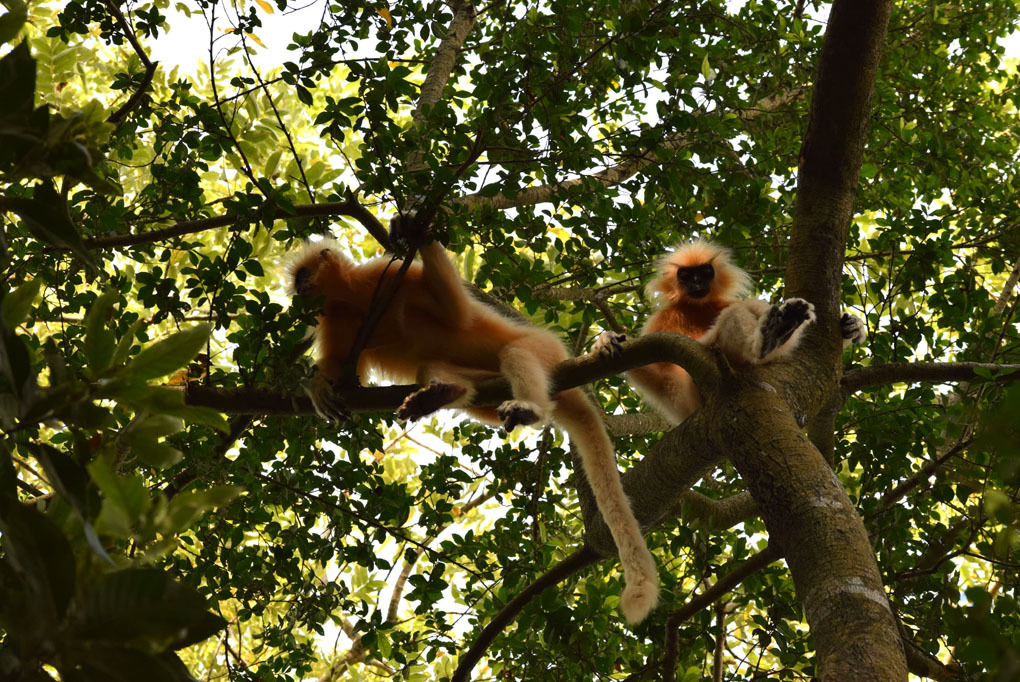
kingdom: Animalia
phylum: Chordata
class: Mammalia
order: Primates
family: Cercopithecidae
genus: Trachypithecus
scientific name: Trachypithecus geei
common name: Gee's golden langur
